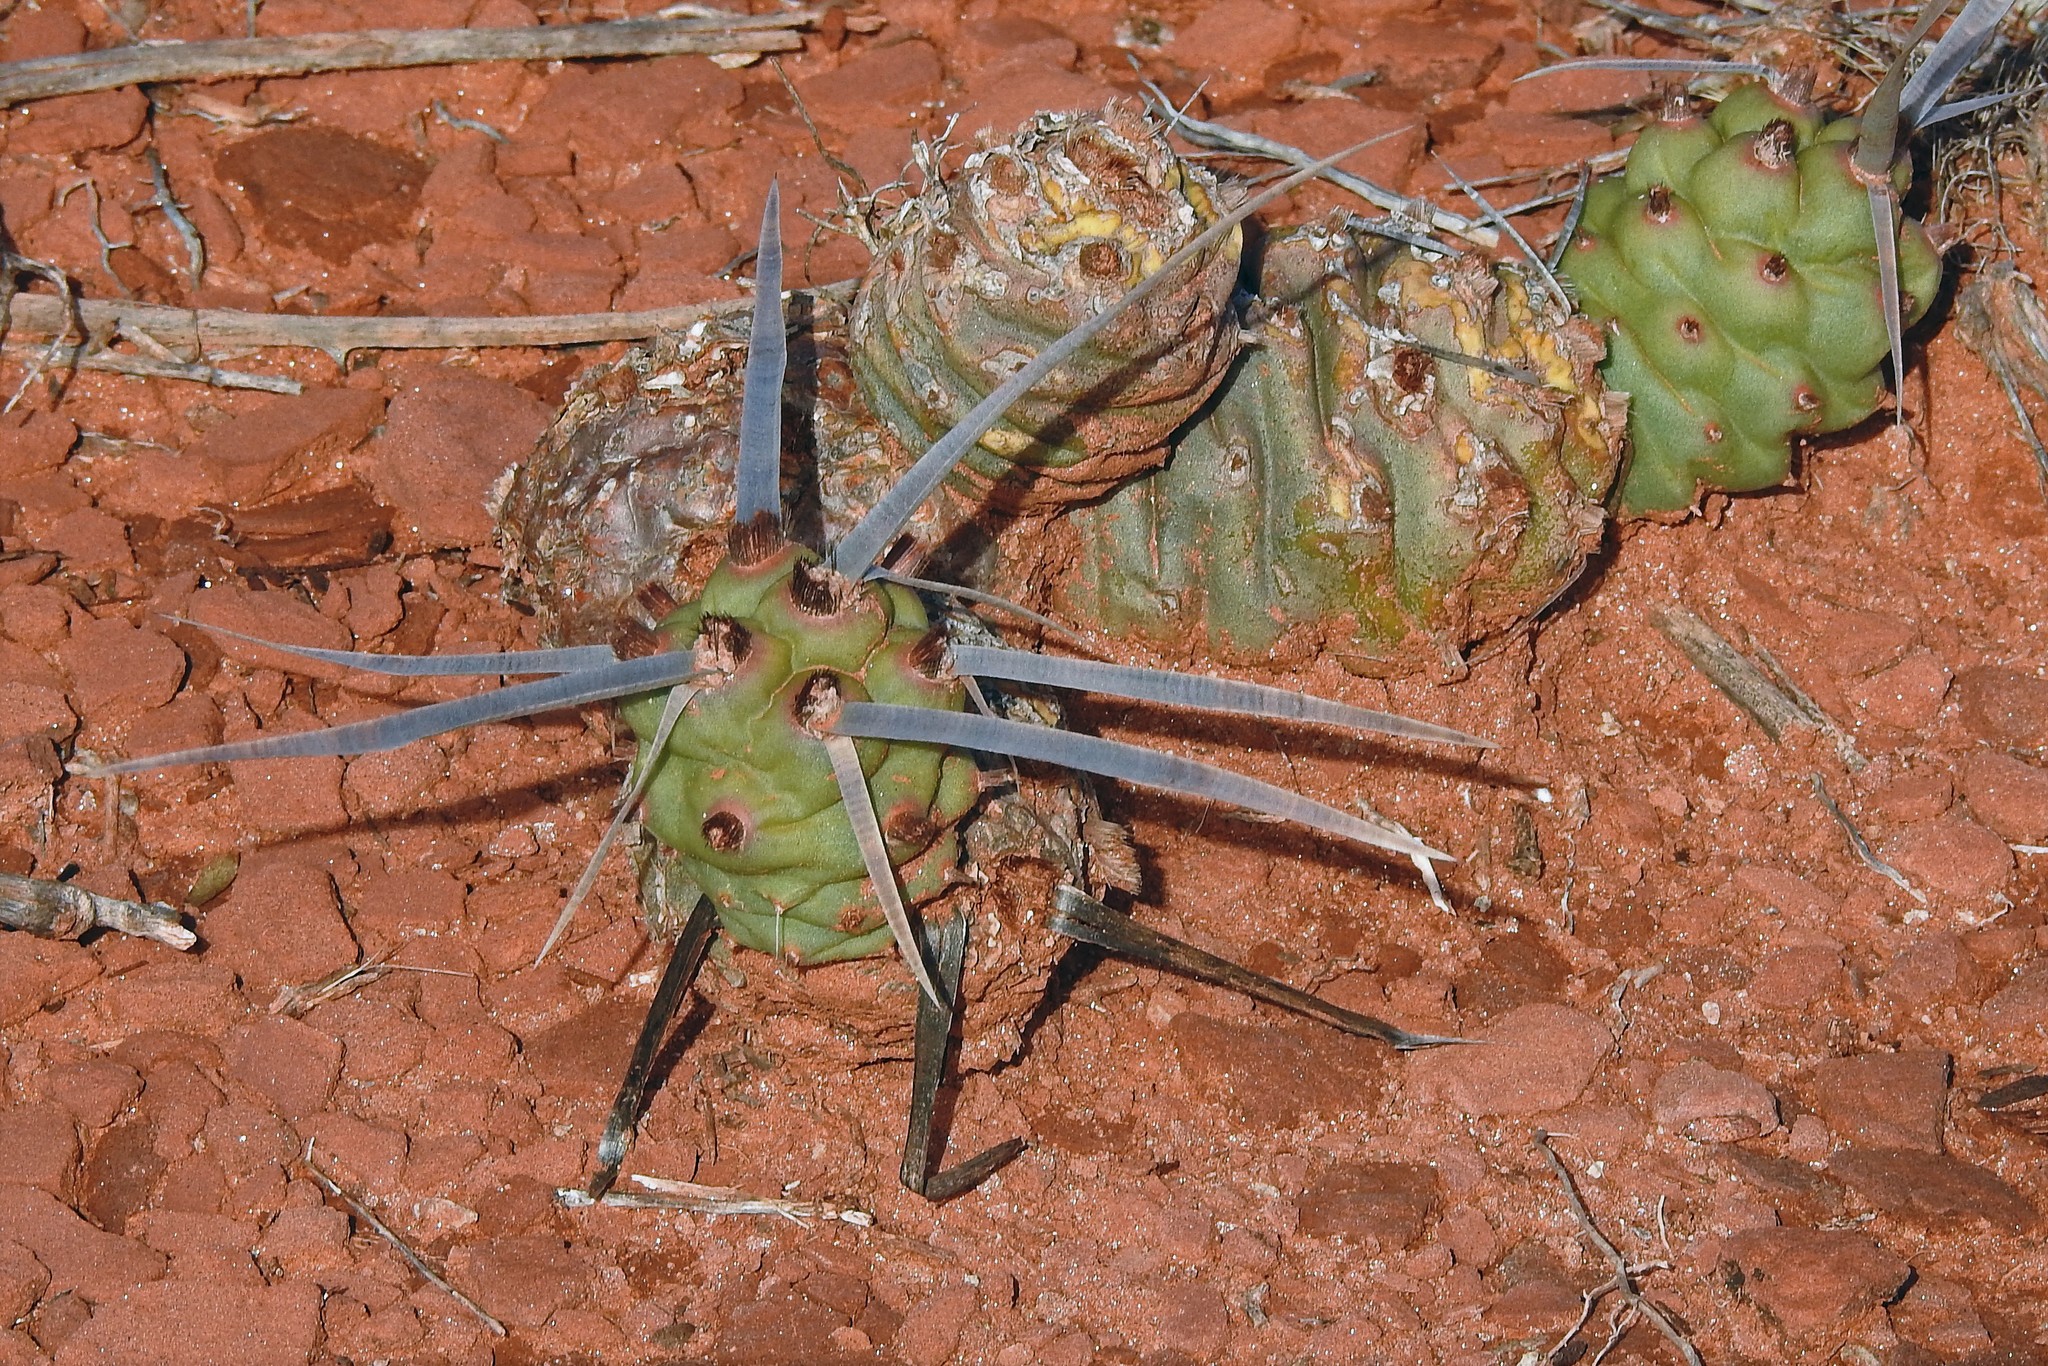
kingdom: Plantae
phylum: Tracheophyta
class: Magnoliopsida
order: Caryophyllales
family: Cactaceae
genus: Tephrocactus
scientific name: Tephrocactus articulatus
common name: Paper cactus
